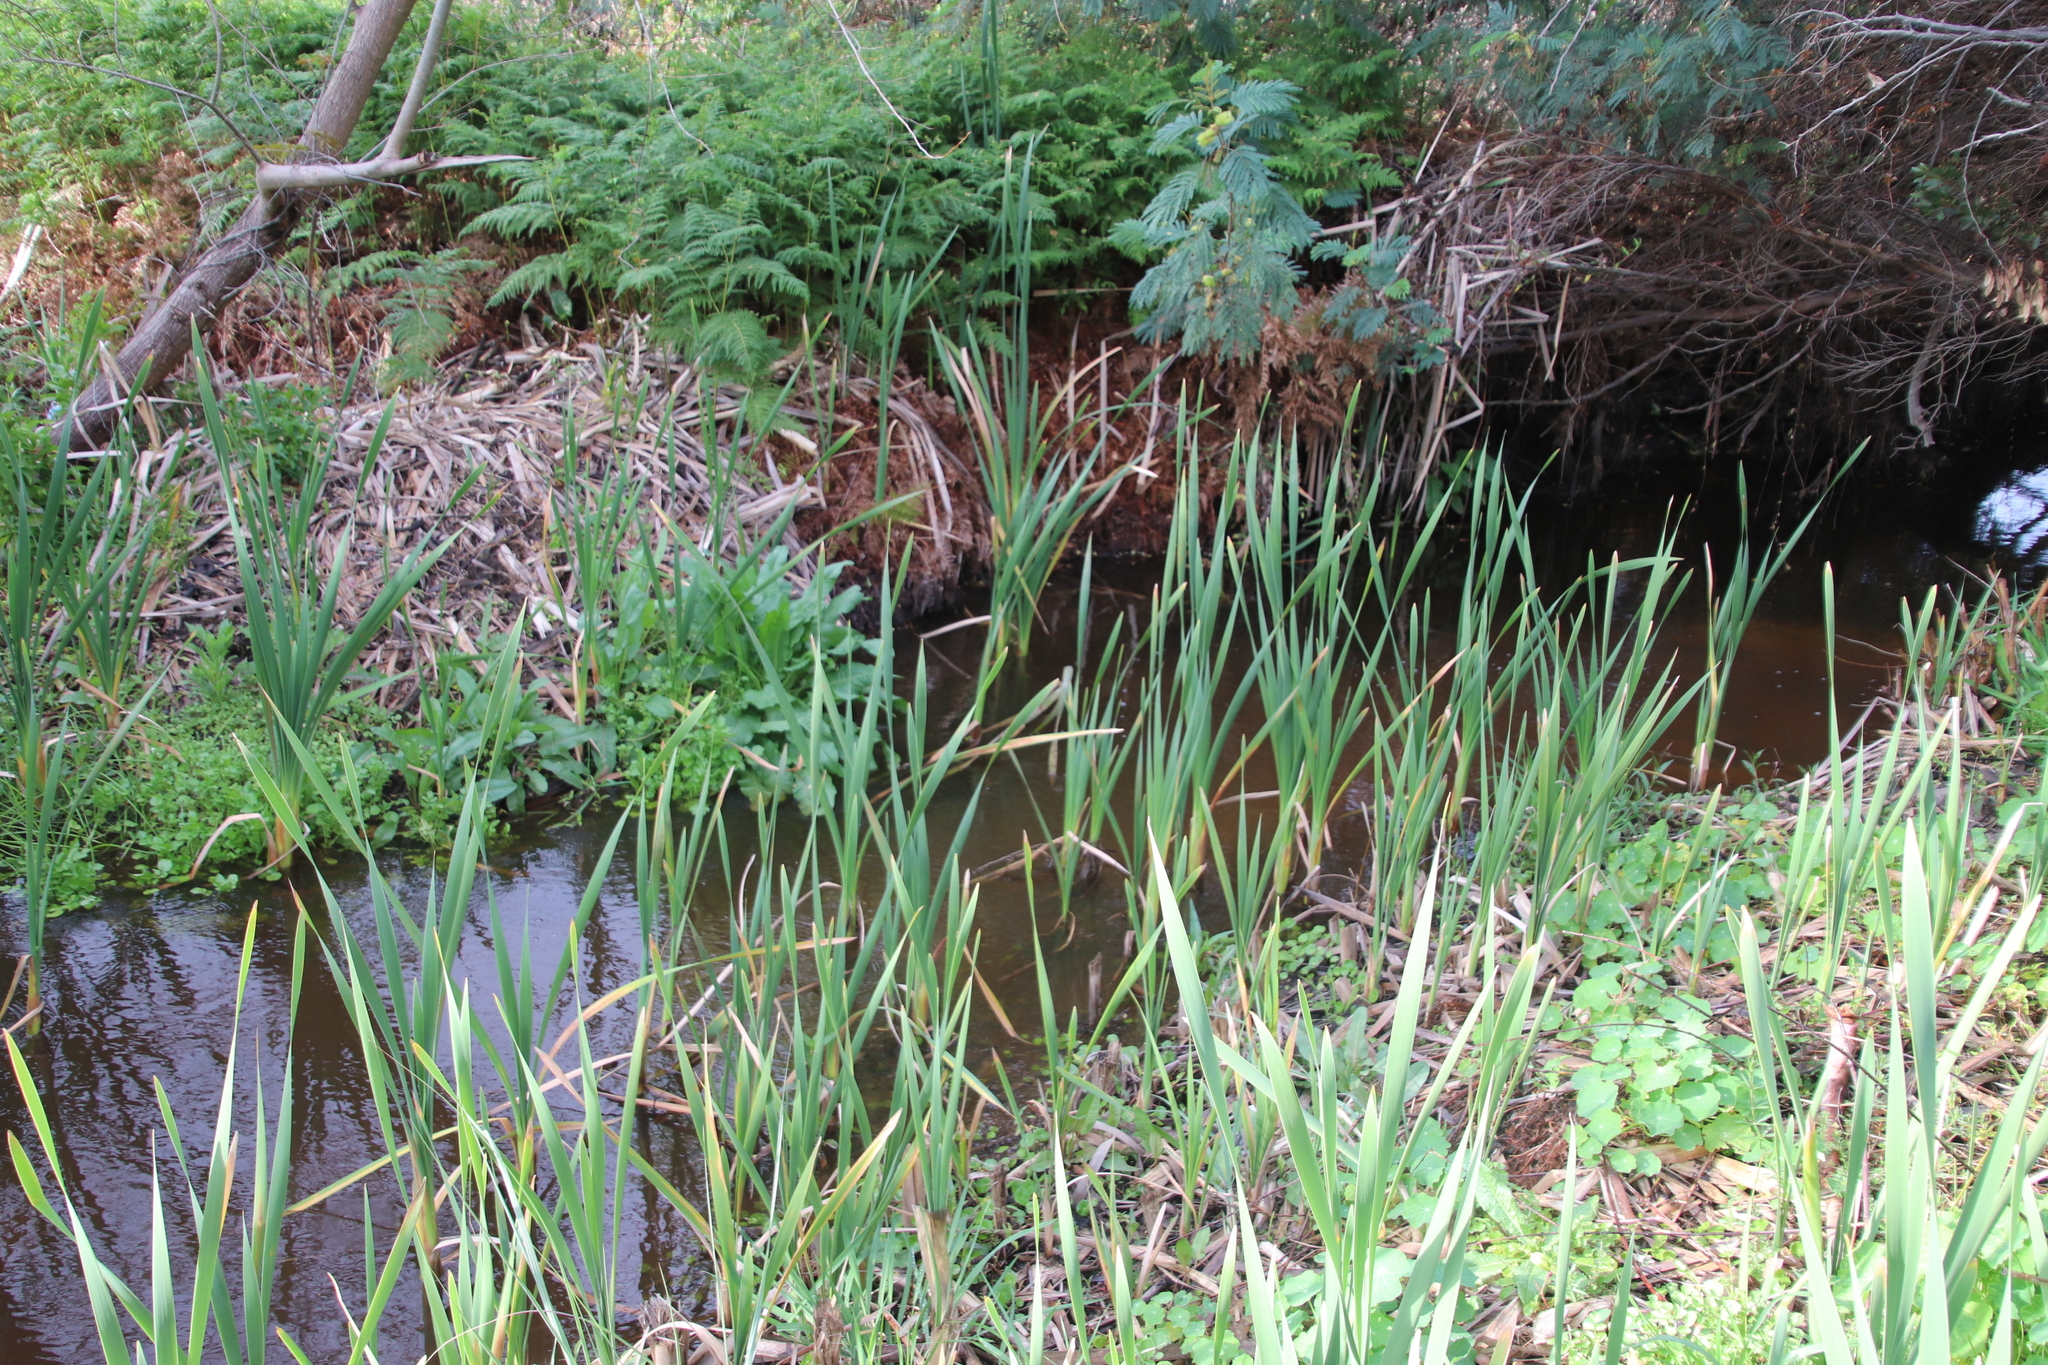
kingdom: Plantae
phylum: Tracheophyta
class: Magnoliopsida
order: Fabales
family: Fabaceae
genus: Paraserianthes
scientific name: Paraserianthes lophantha
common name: Plume albizia
